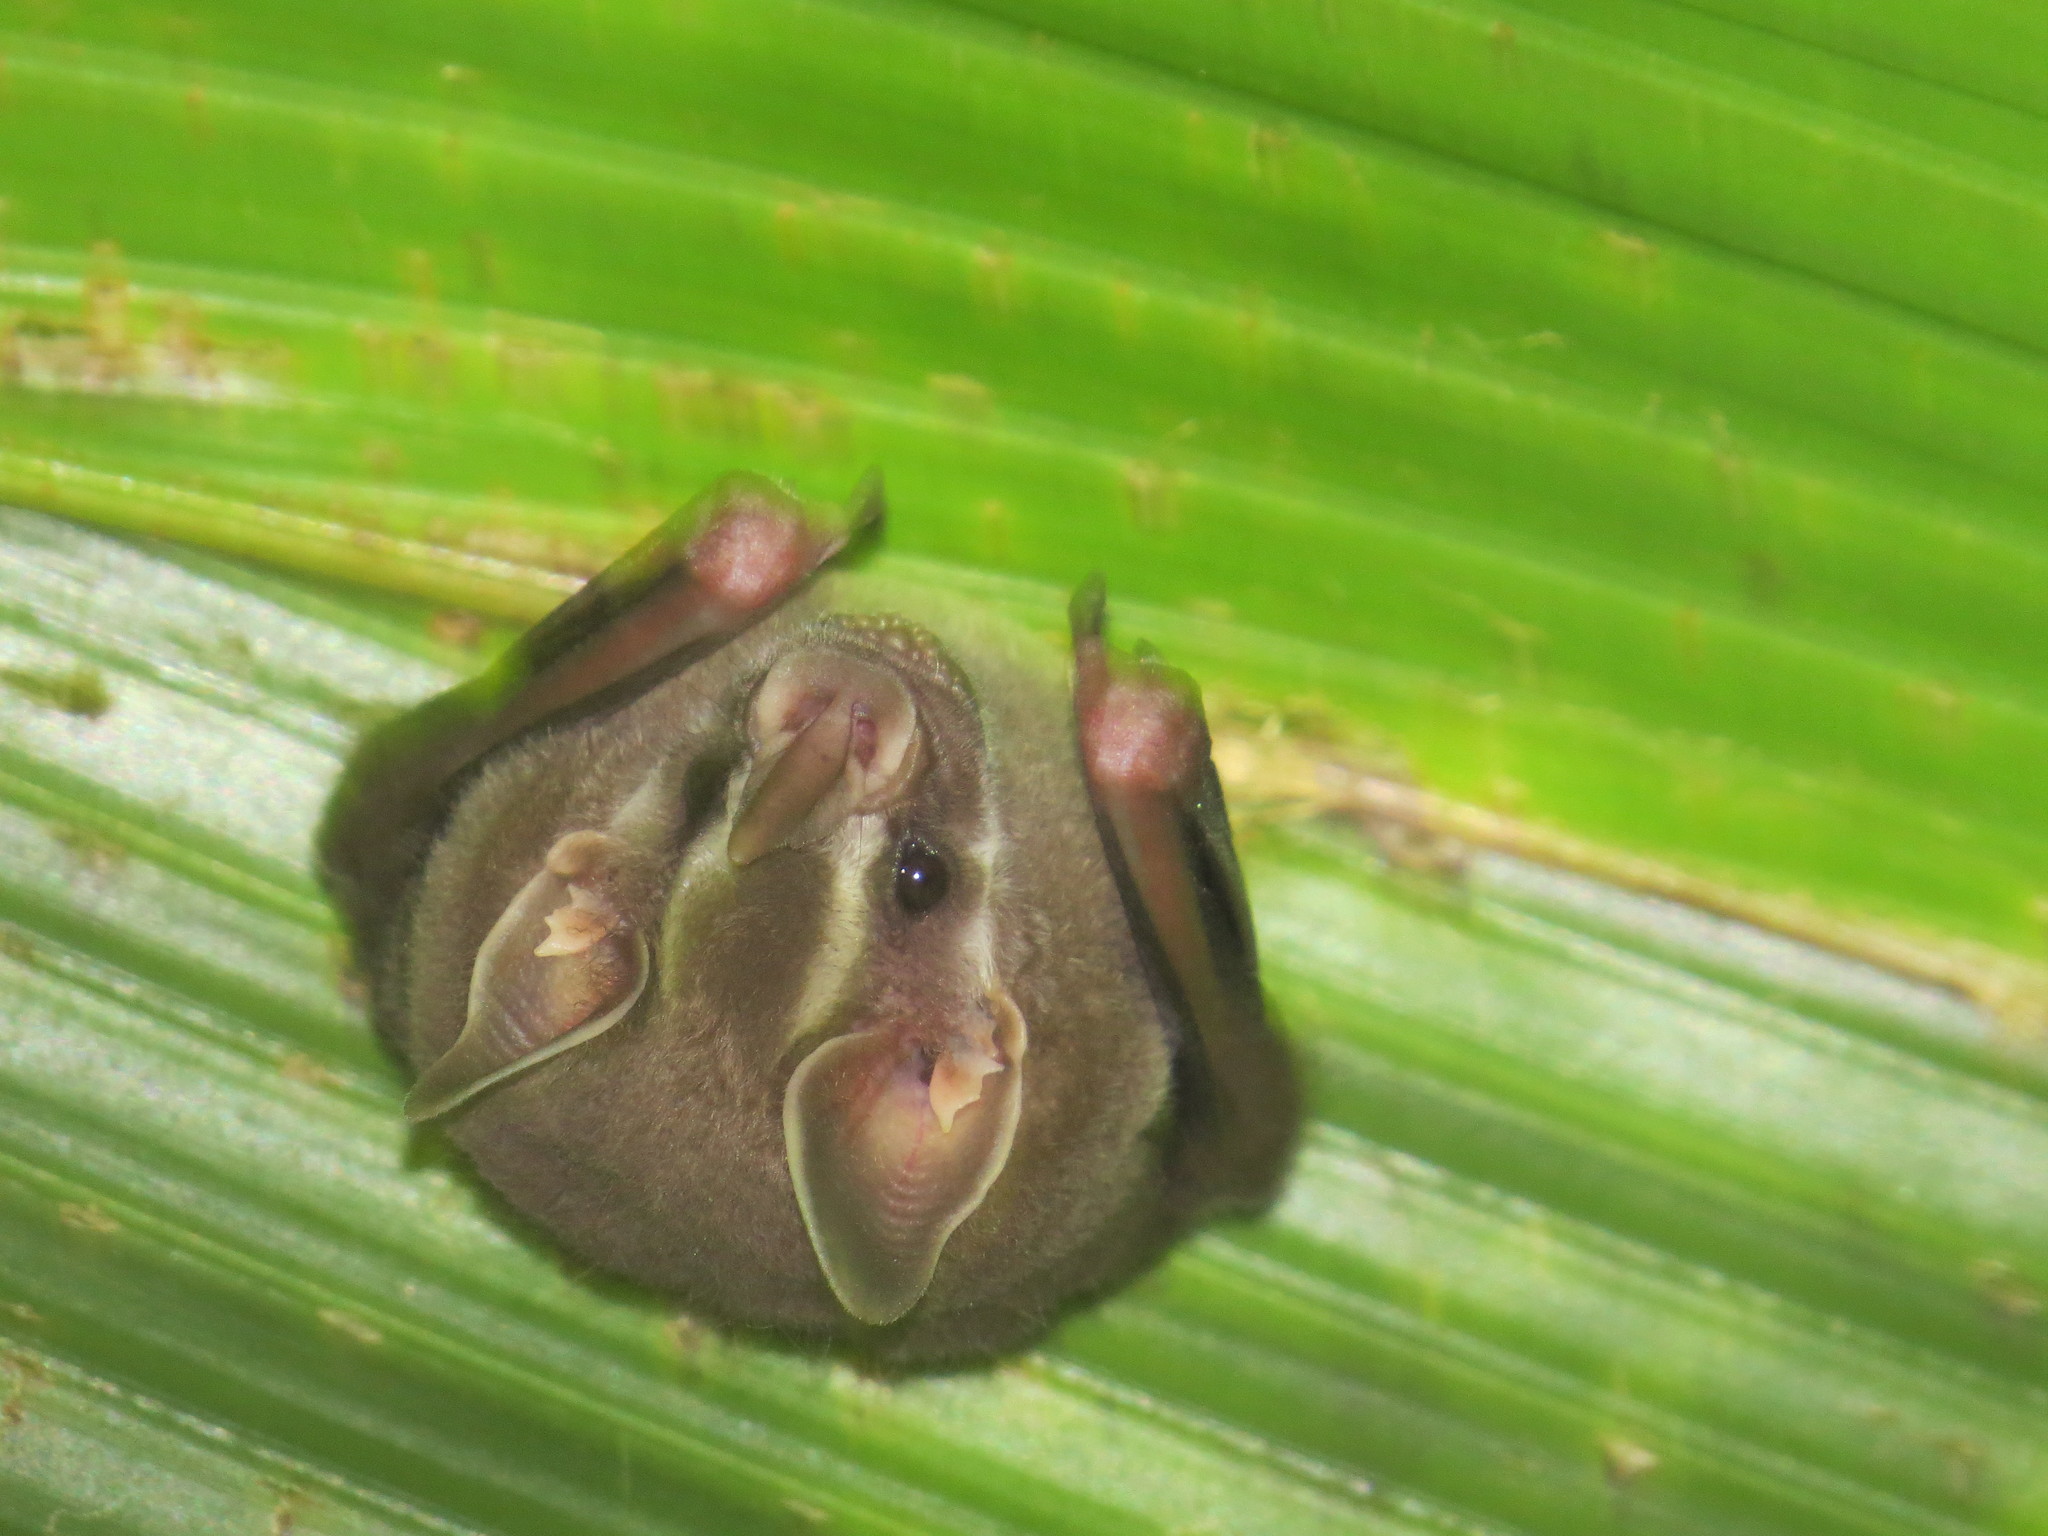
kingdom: Animalia
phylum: Chordata
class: Mammalia
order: Chiroptera
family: Phyllostomidae
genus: Artibeus
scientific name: Artibeus watsoni
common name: Thomas's fruit-eating bat
